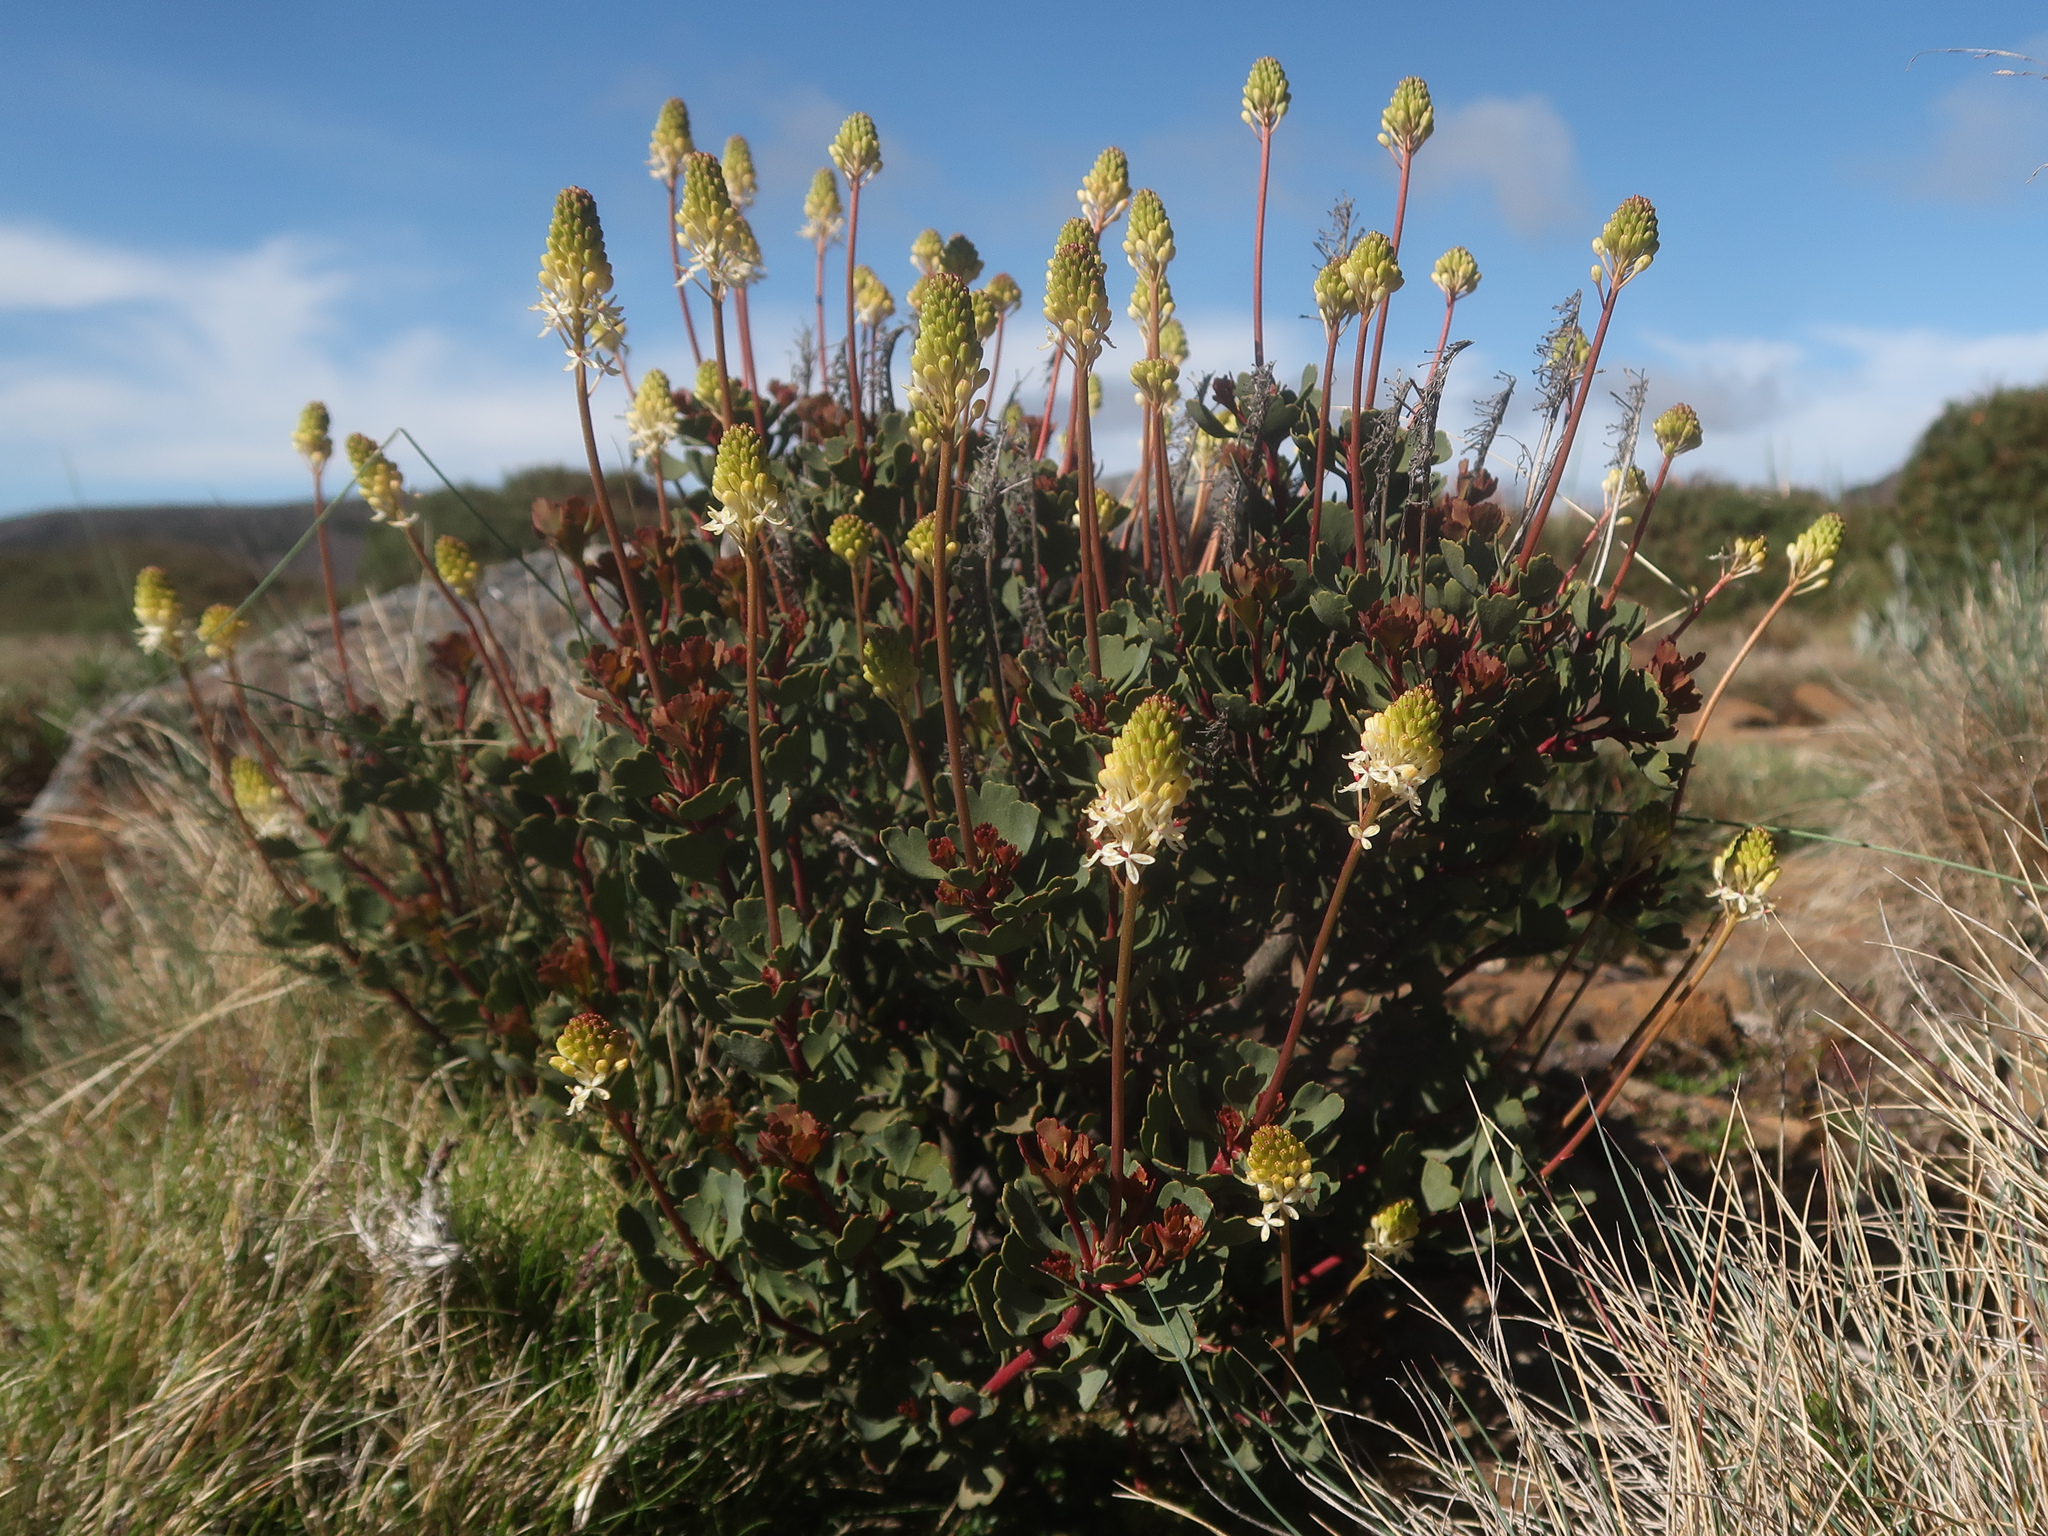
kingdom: Plantae
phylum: Tracheophyta
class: Magnoliopsida
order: Proteales
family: Proteaceae
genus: Bellendena
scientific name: Bellendena montana
